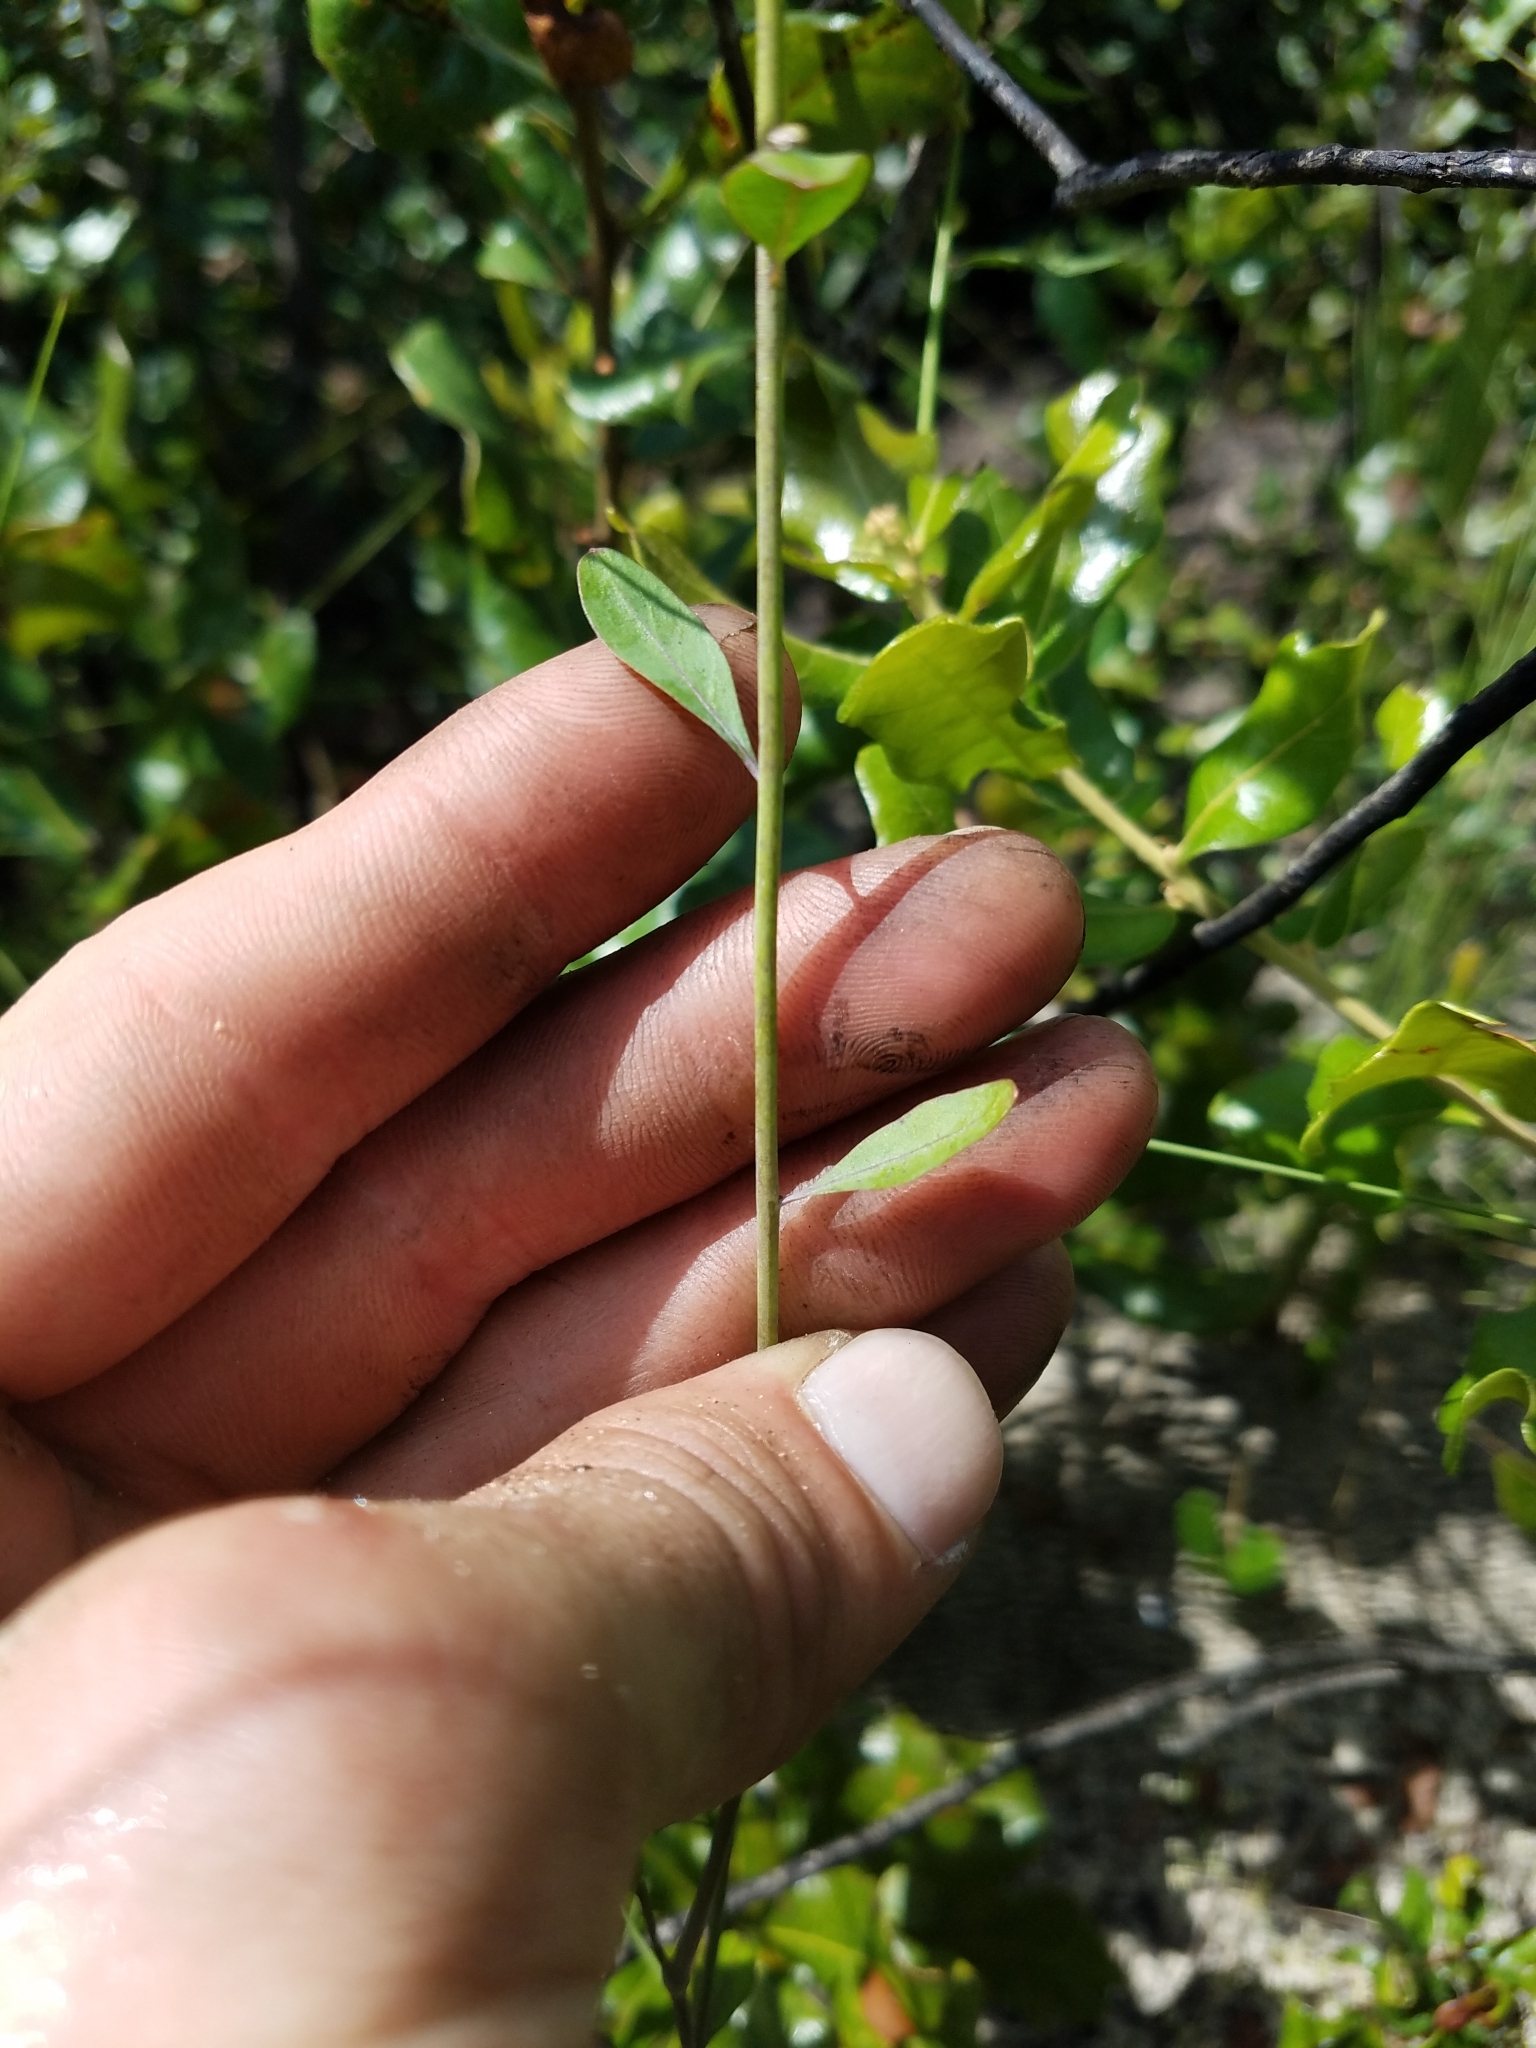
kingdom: Plantae
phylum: Tracheophyta
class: Magnoliopsida
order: Brassicales
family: Brassicaceae
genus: Warea
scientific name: Warea carteri
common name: Carter's mustard
